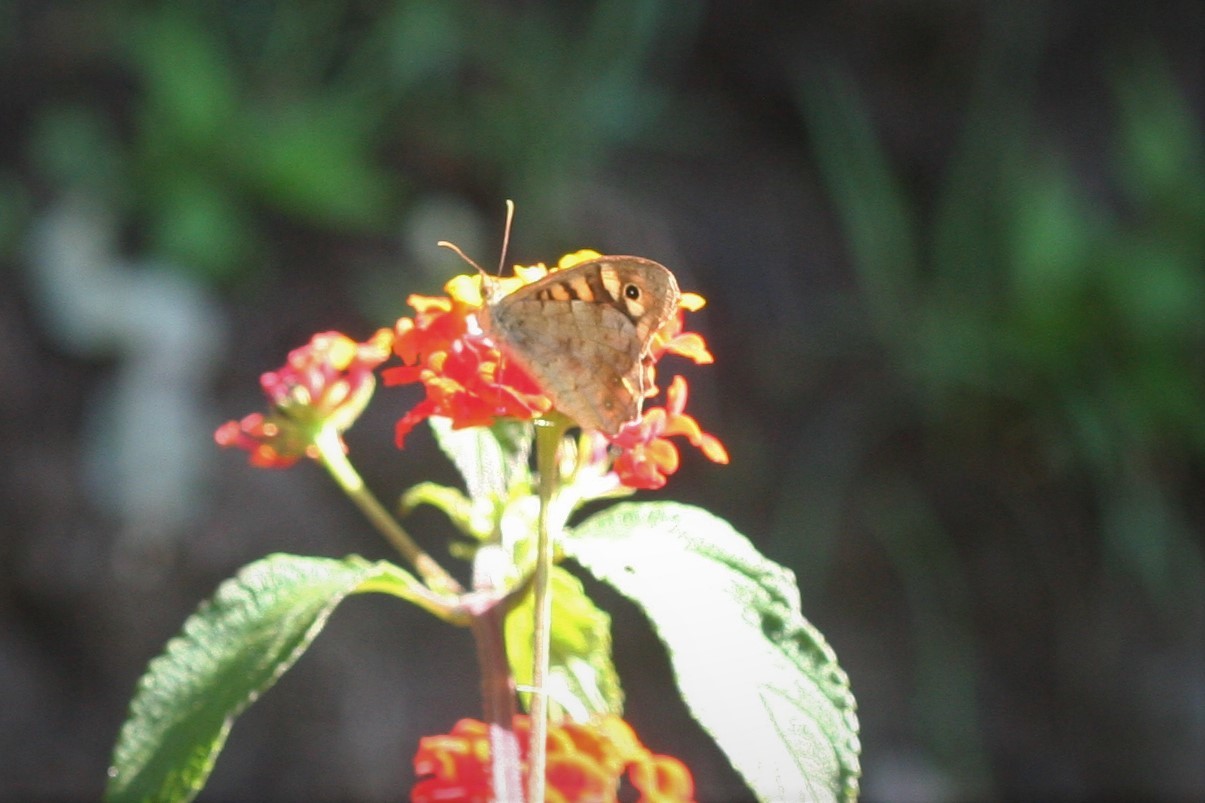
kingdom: Animalia
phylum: Arthropoda
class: Insecta
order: Lepidoptera
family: Nymphalidae
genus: Pararge
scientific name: Pararge aegeria
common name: Speckled wood
